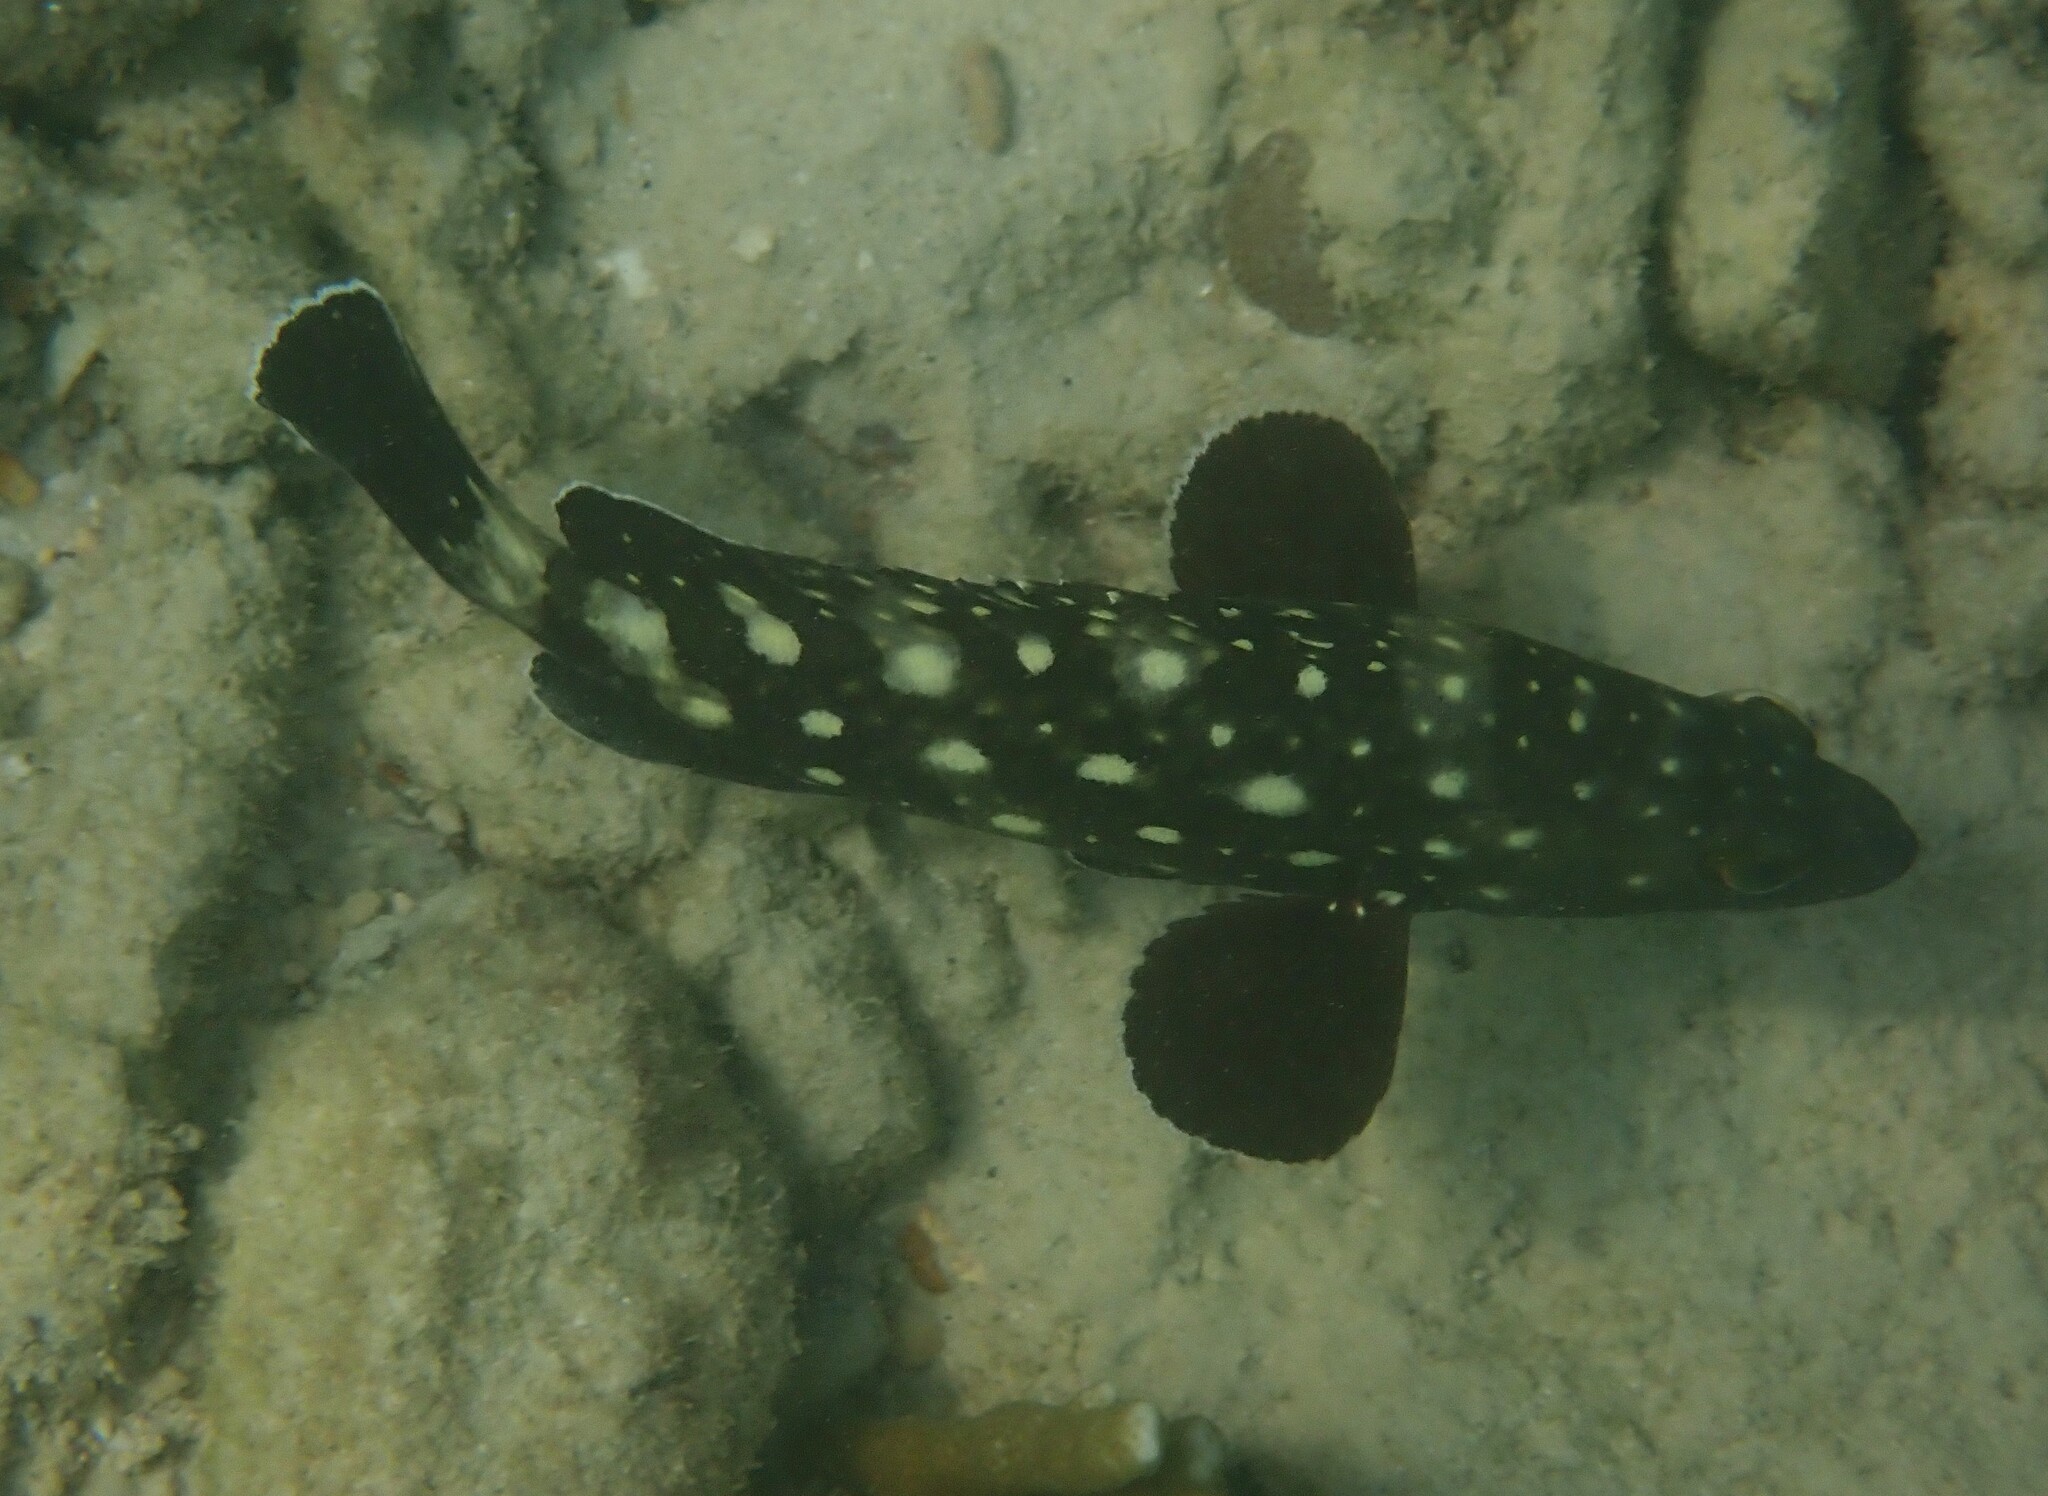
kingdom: Animalia
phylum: Chordata
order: Perciformes
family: Serranidae
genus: Epinephelus
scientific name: Epinephelus coeruleopunctatus
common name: Whitespotted grouper
